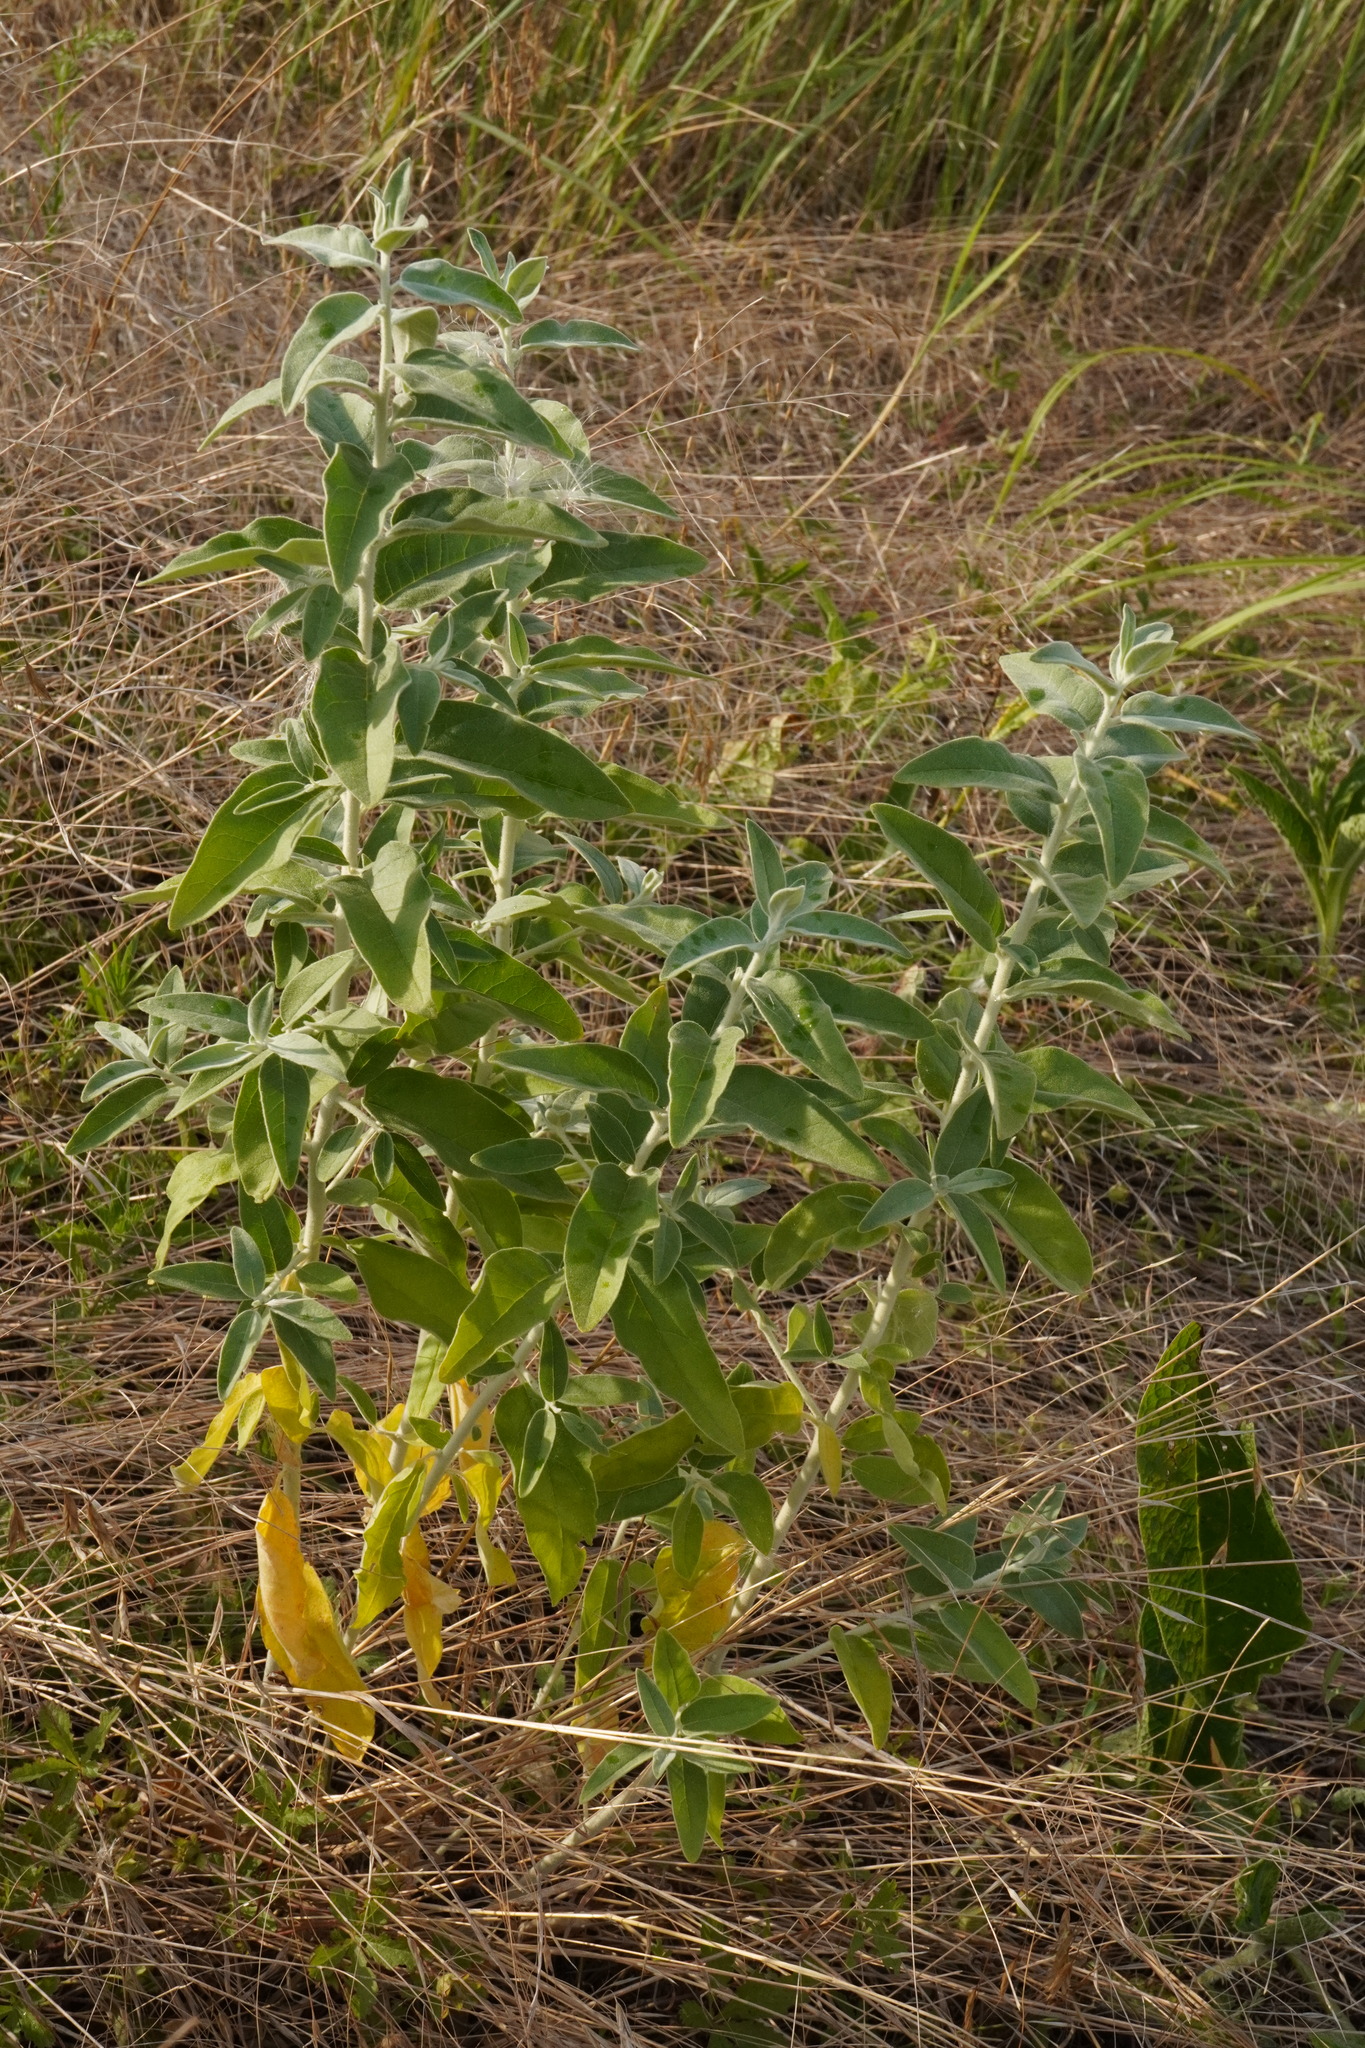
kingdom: Plantae
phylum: Tracheophyta
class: Magnoliopsida
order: Rosales
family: Elaeagnaceae
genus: Elaeagnus
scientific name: Elaeagnus angustifolia
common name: Russian olive
